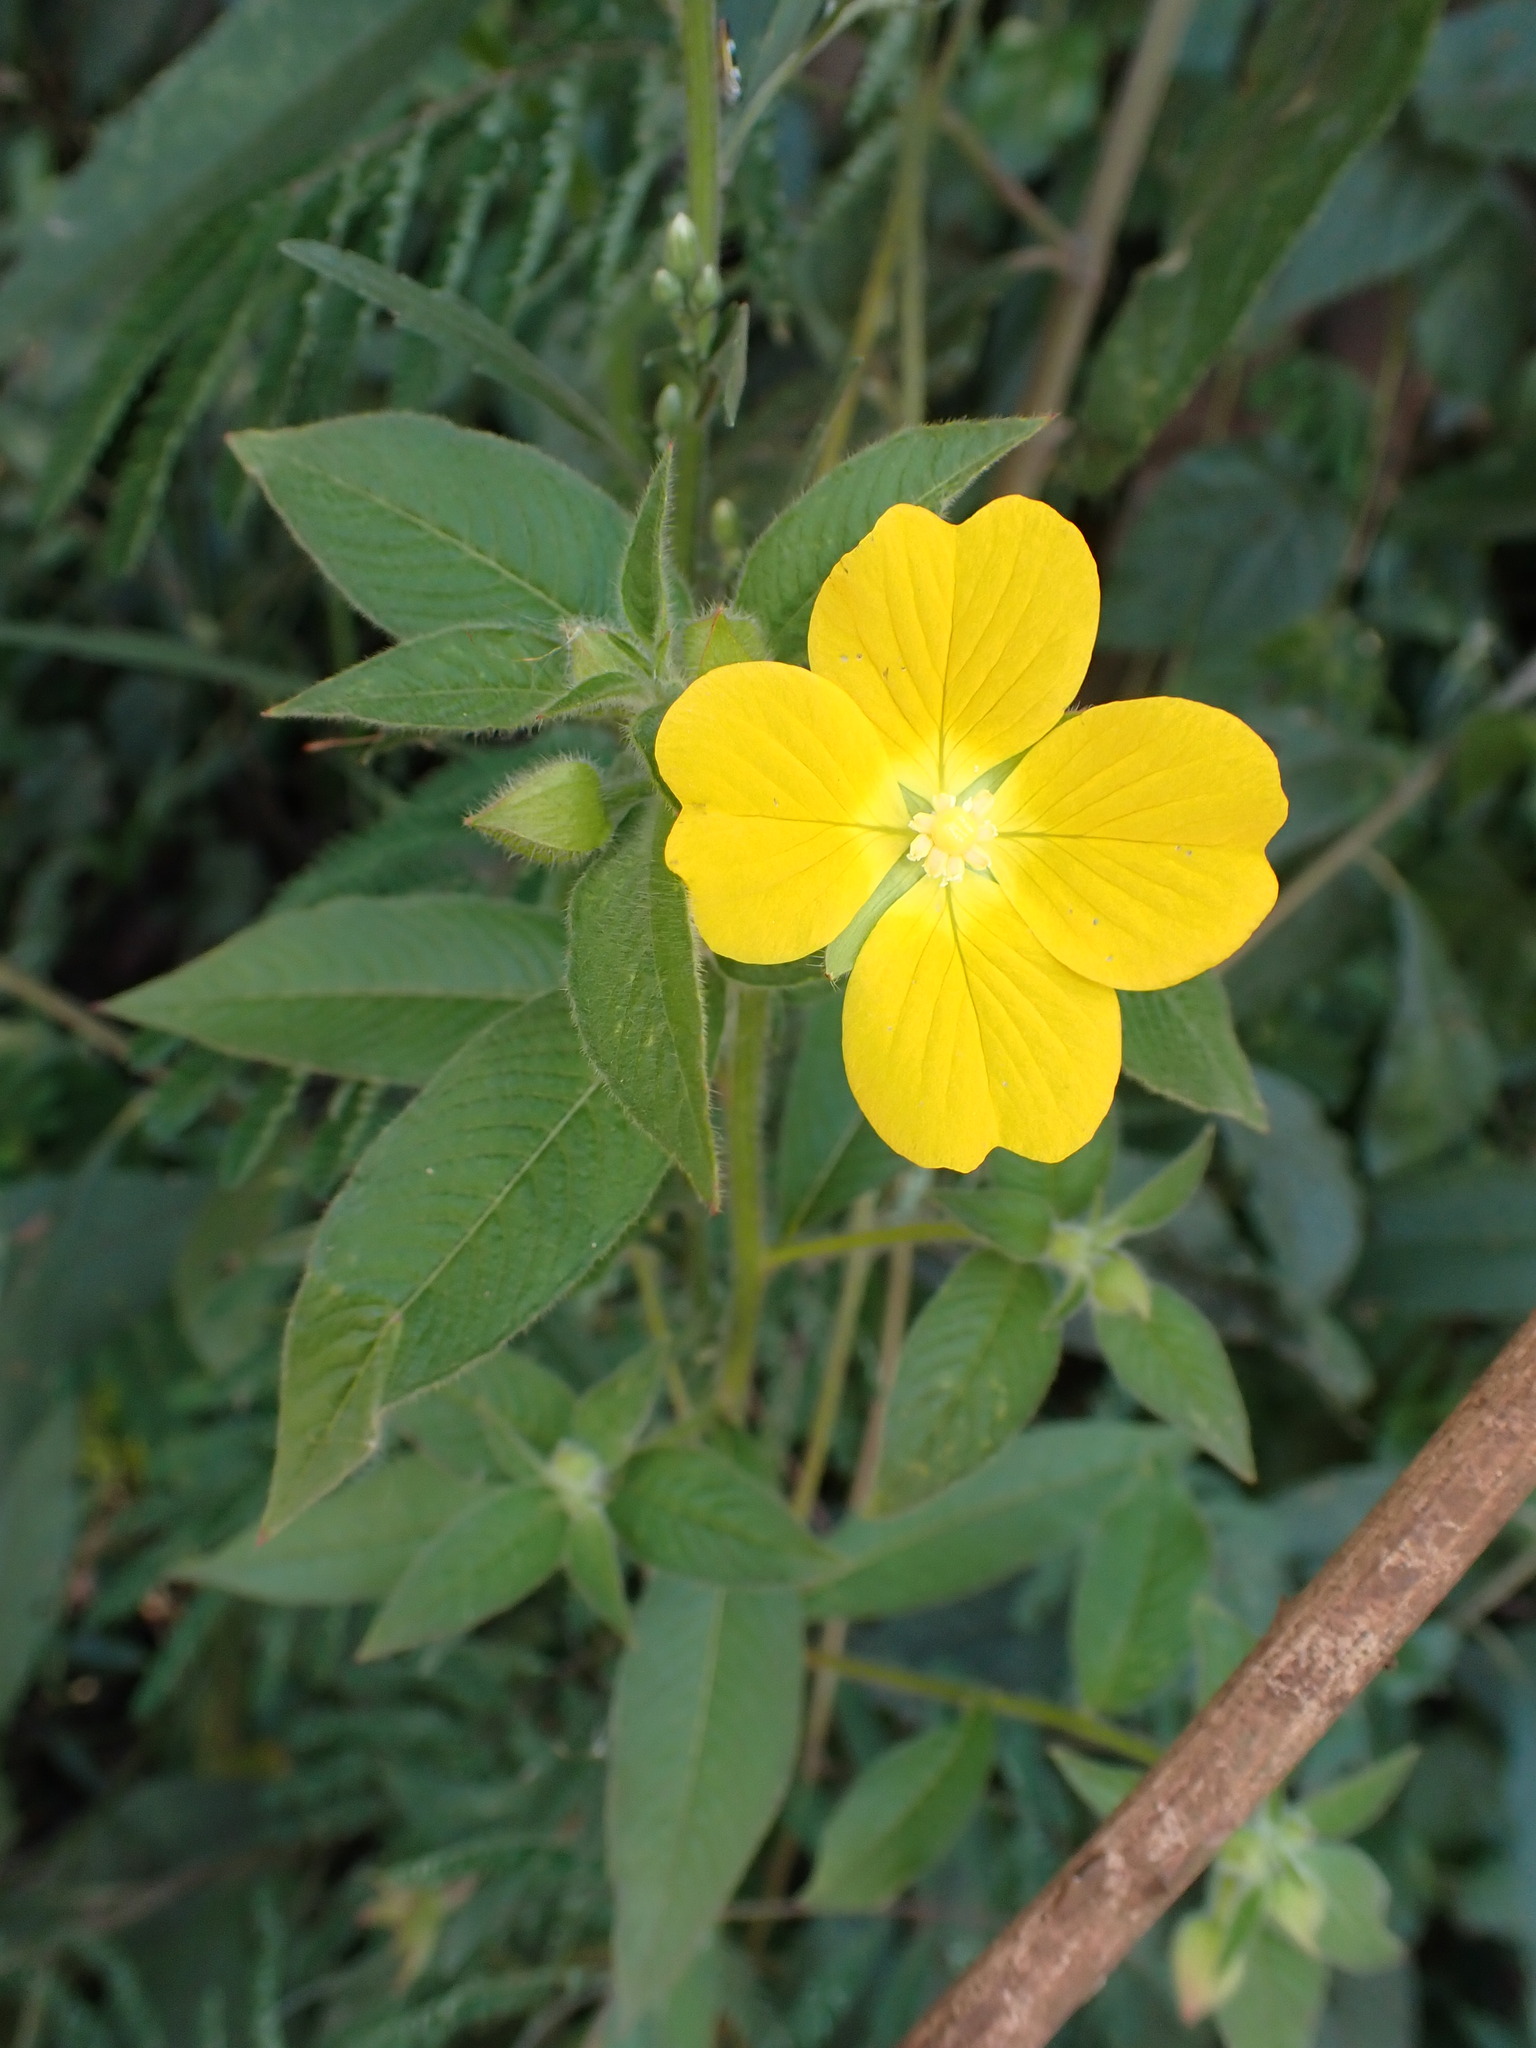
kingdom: Plantae
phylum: Tracheophyta
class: Magnoliopsida
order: Myrtales
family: Onagraceae
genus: Ludwigia
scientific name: Ludwigia octovalvis
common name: Water-primrose
